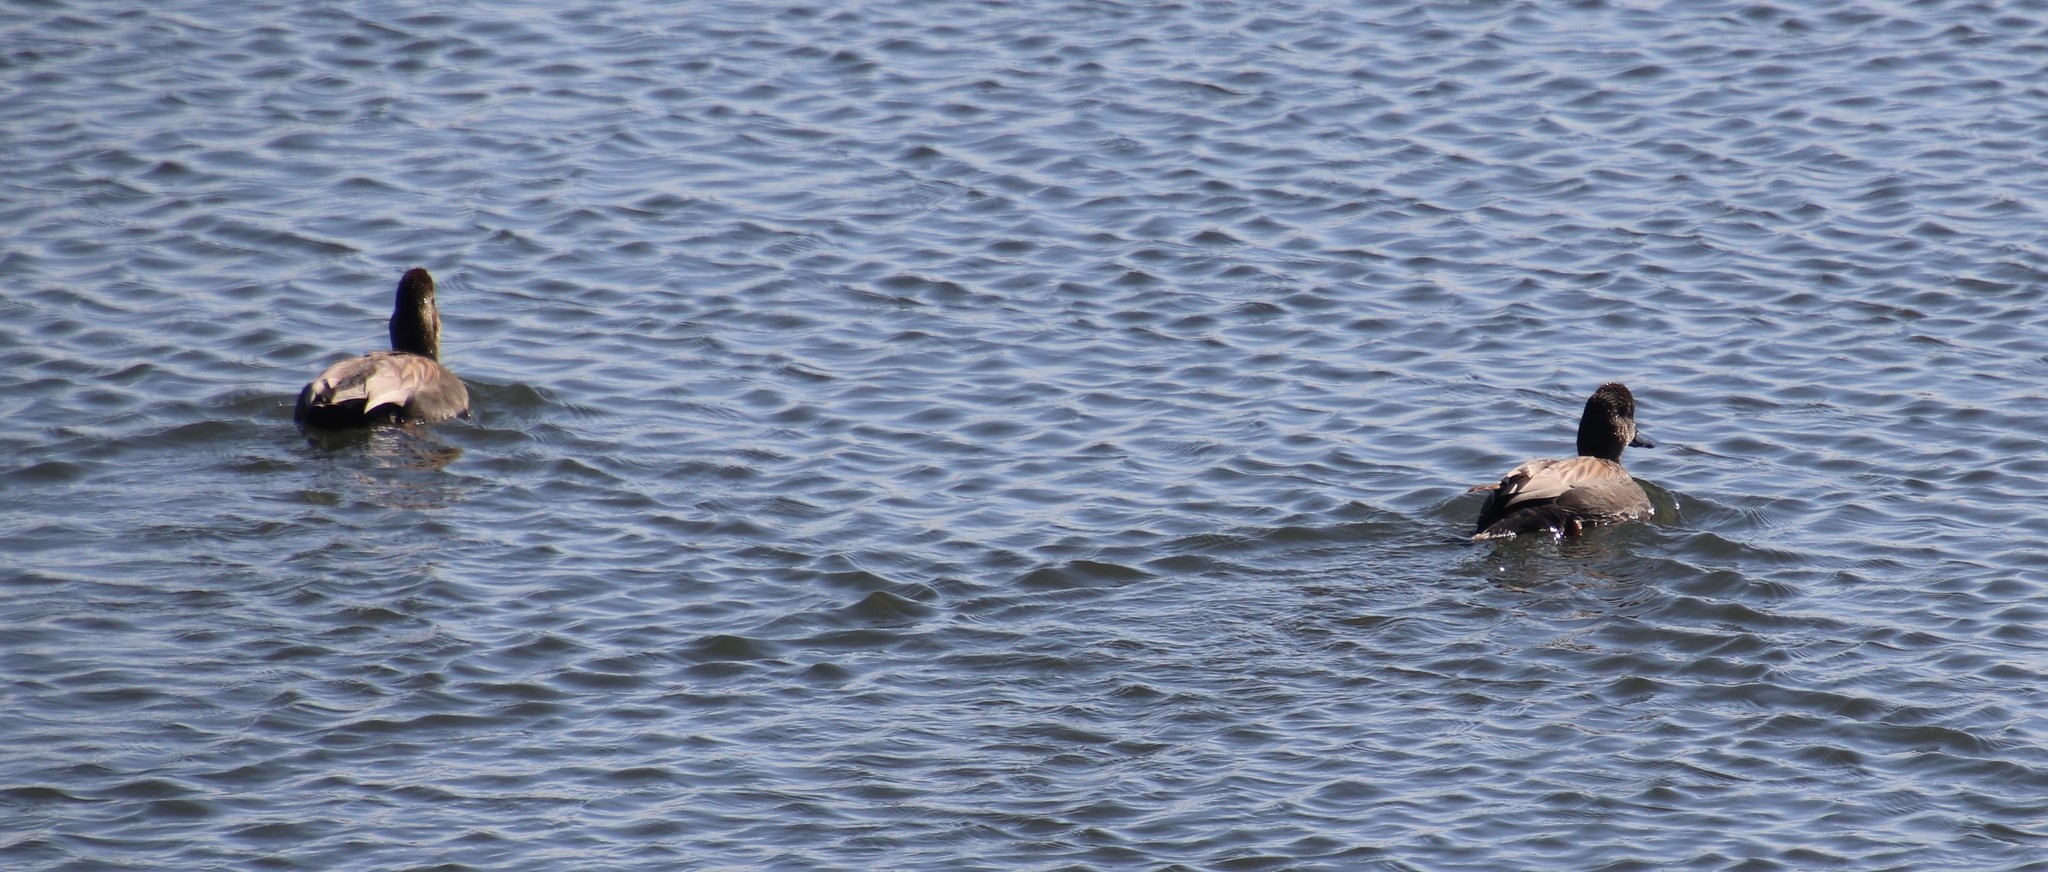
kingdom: Animalia
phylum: Chordata
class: Aves
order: Anseriformes
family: Anatidae
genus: Mareca
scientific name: Mareca strepera
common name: Gadwall
